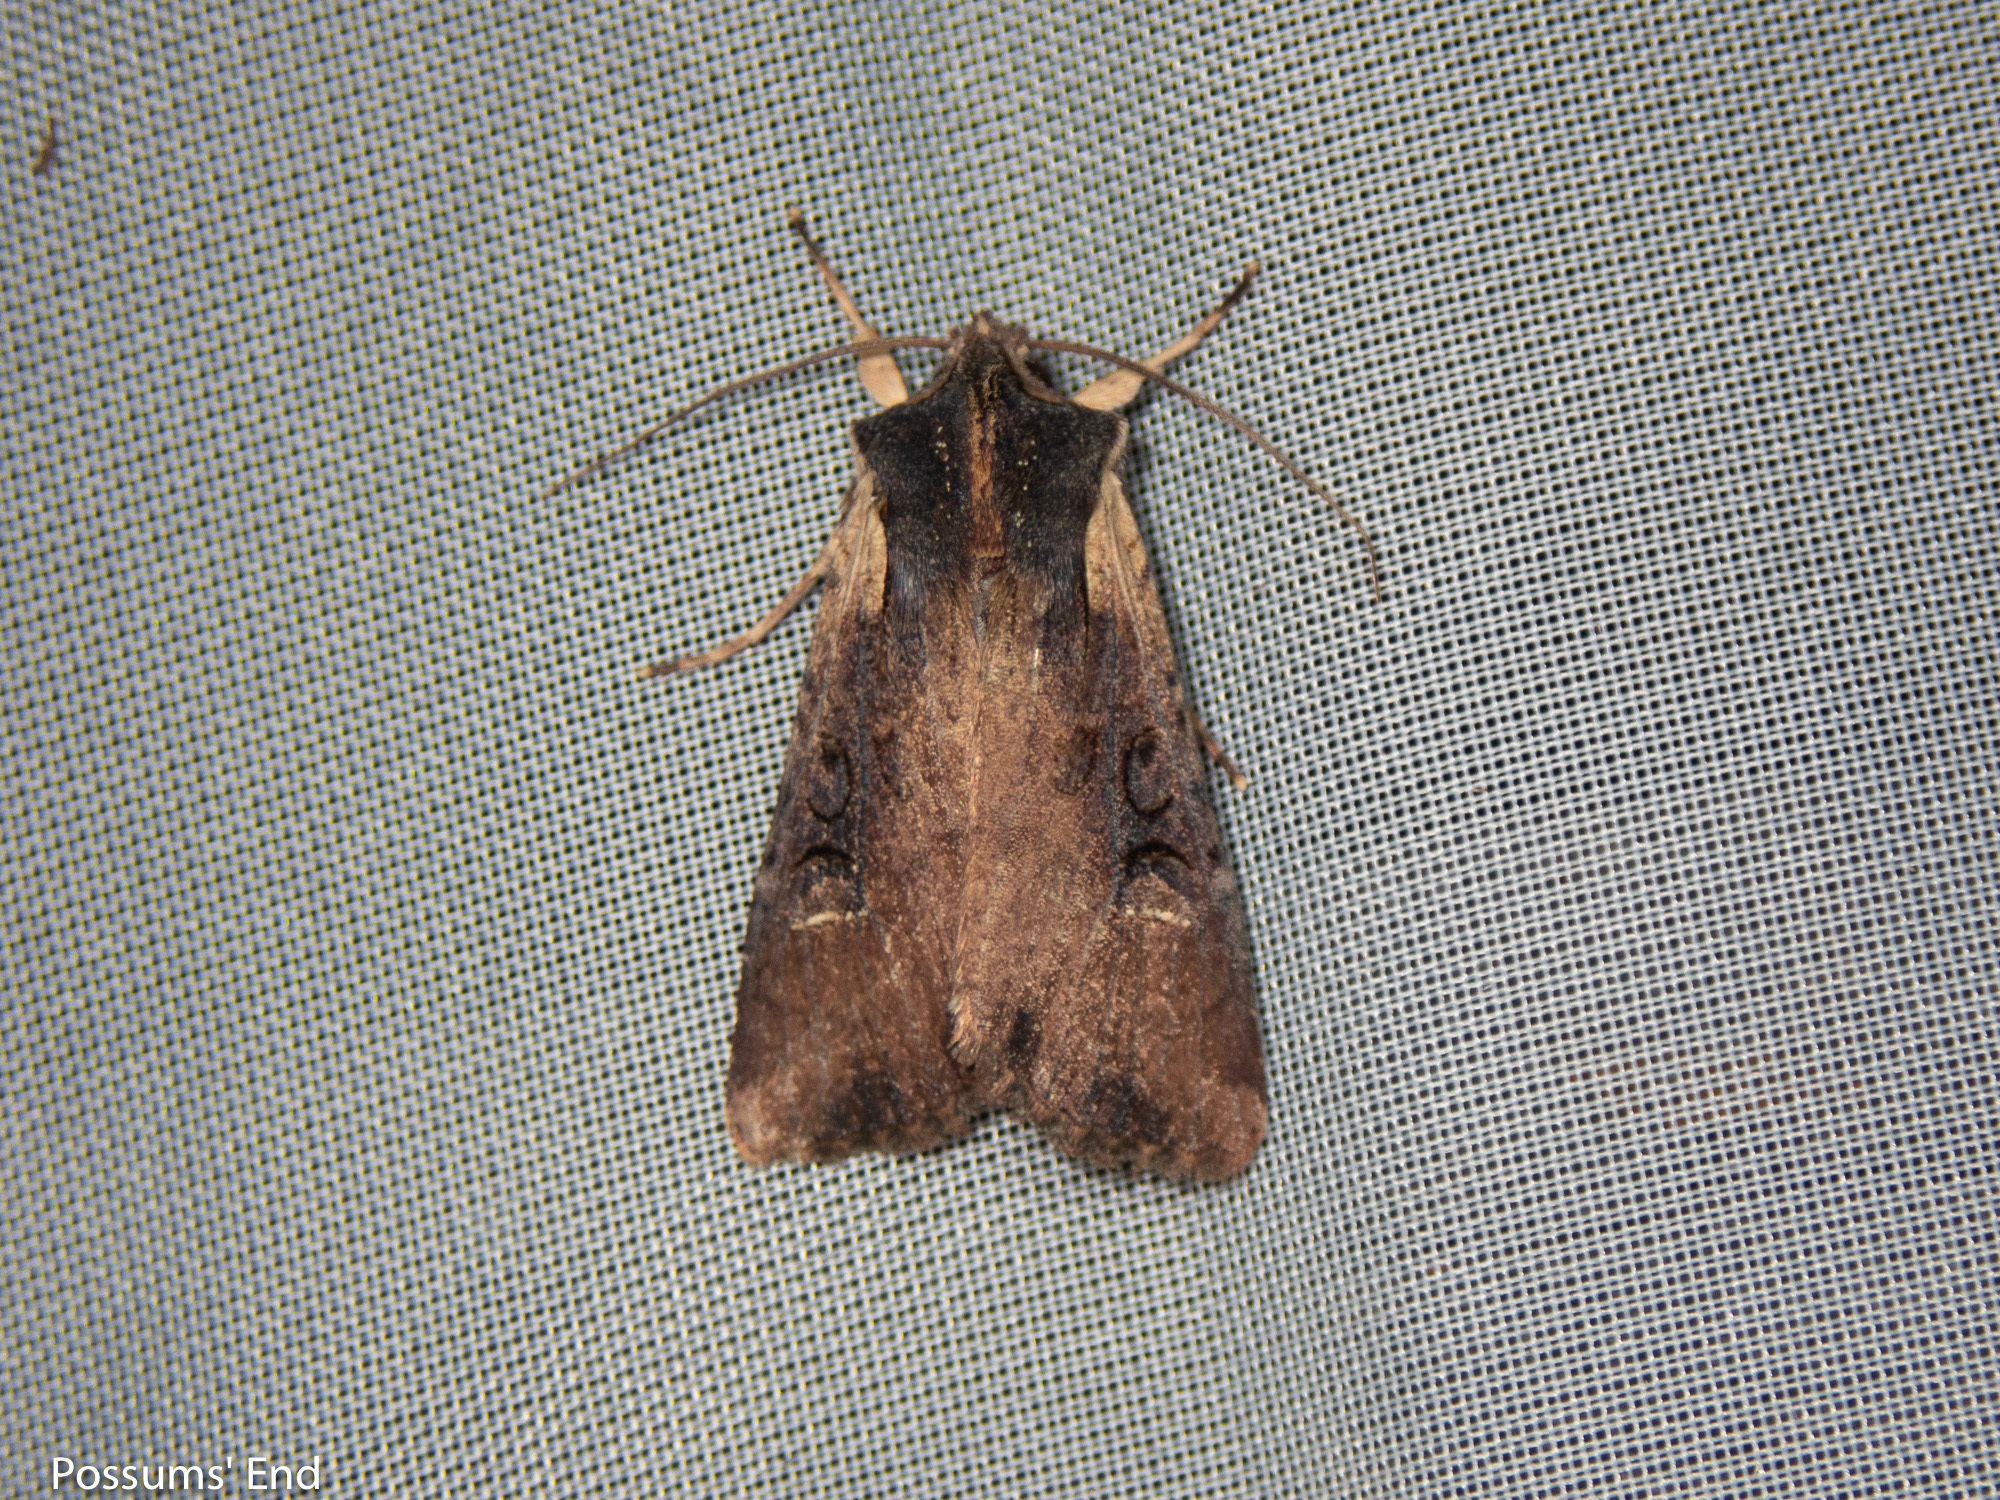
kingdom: Animalia
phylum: Arthropoda
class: Insecta
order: Lepidoptera
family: Noctuidae
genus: Ichneutica
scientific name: Ichneutica omoplaca
